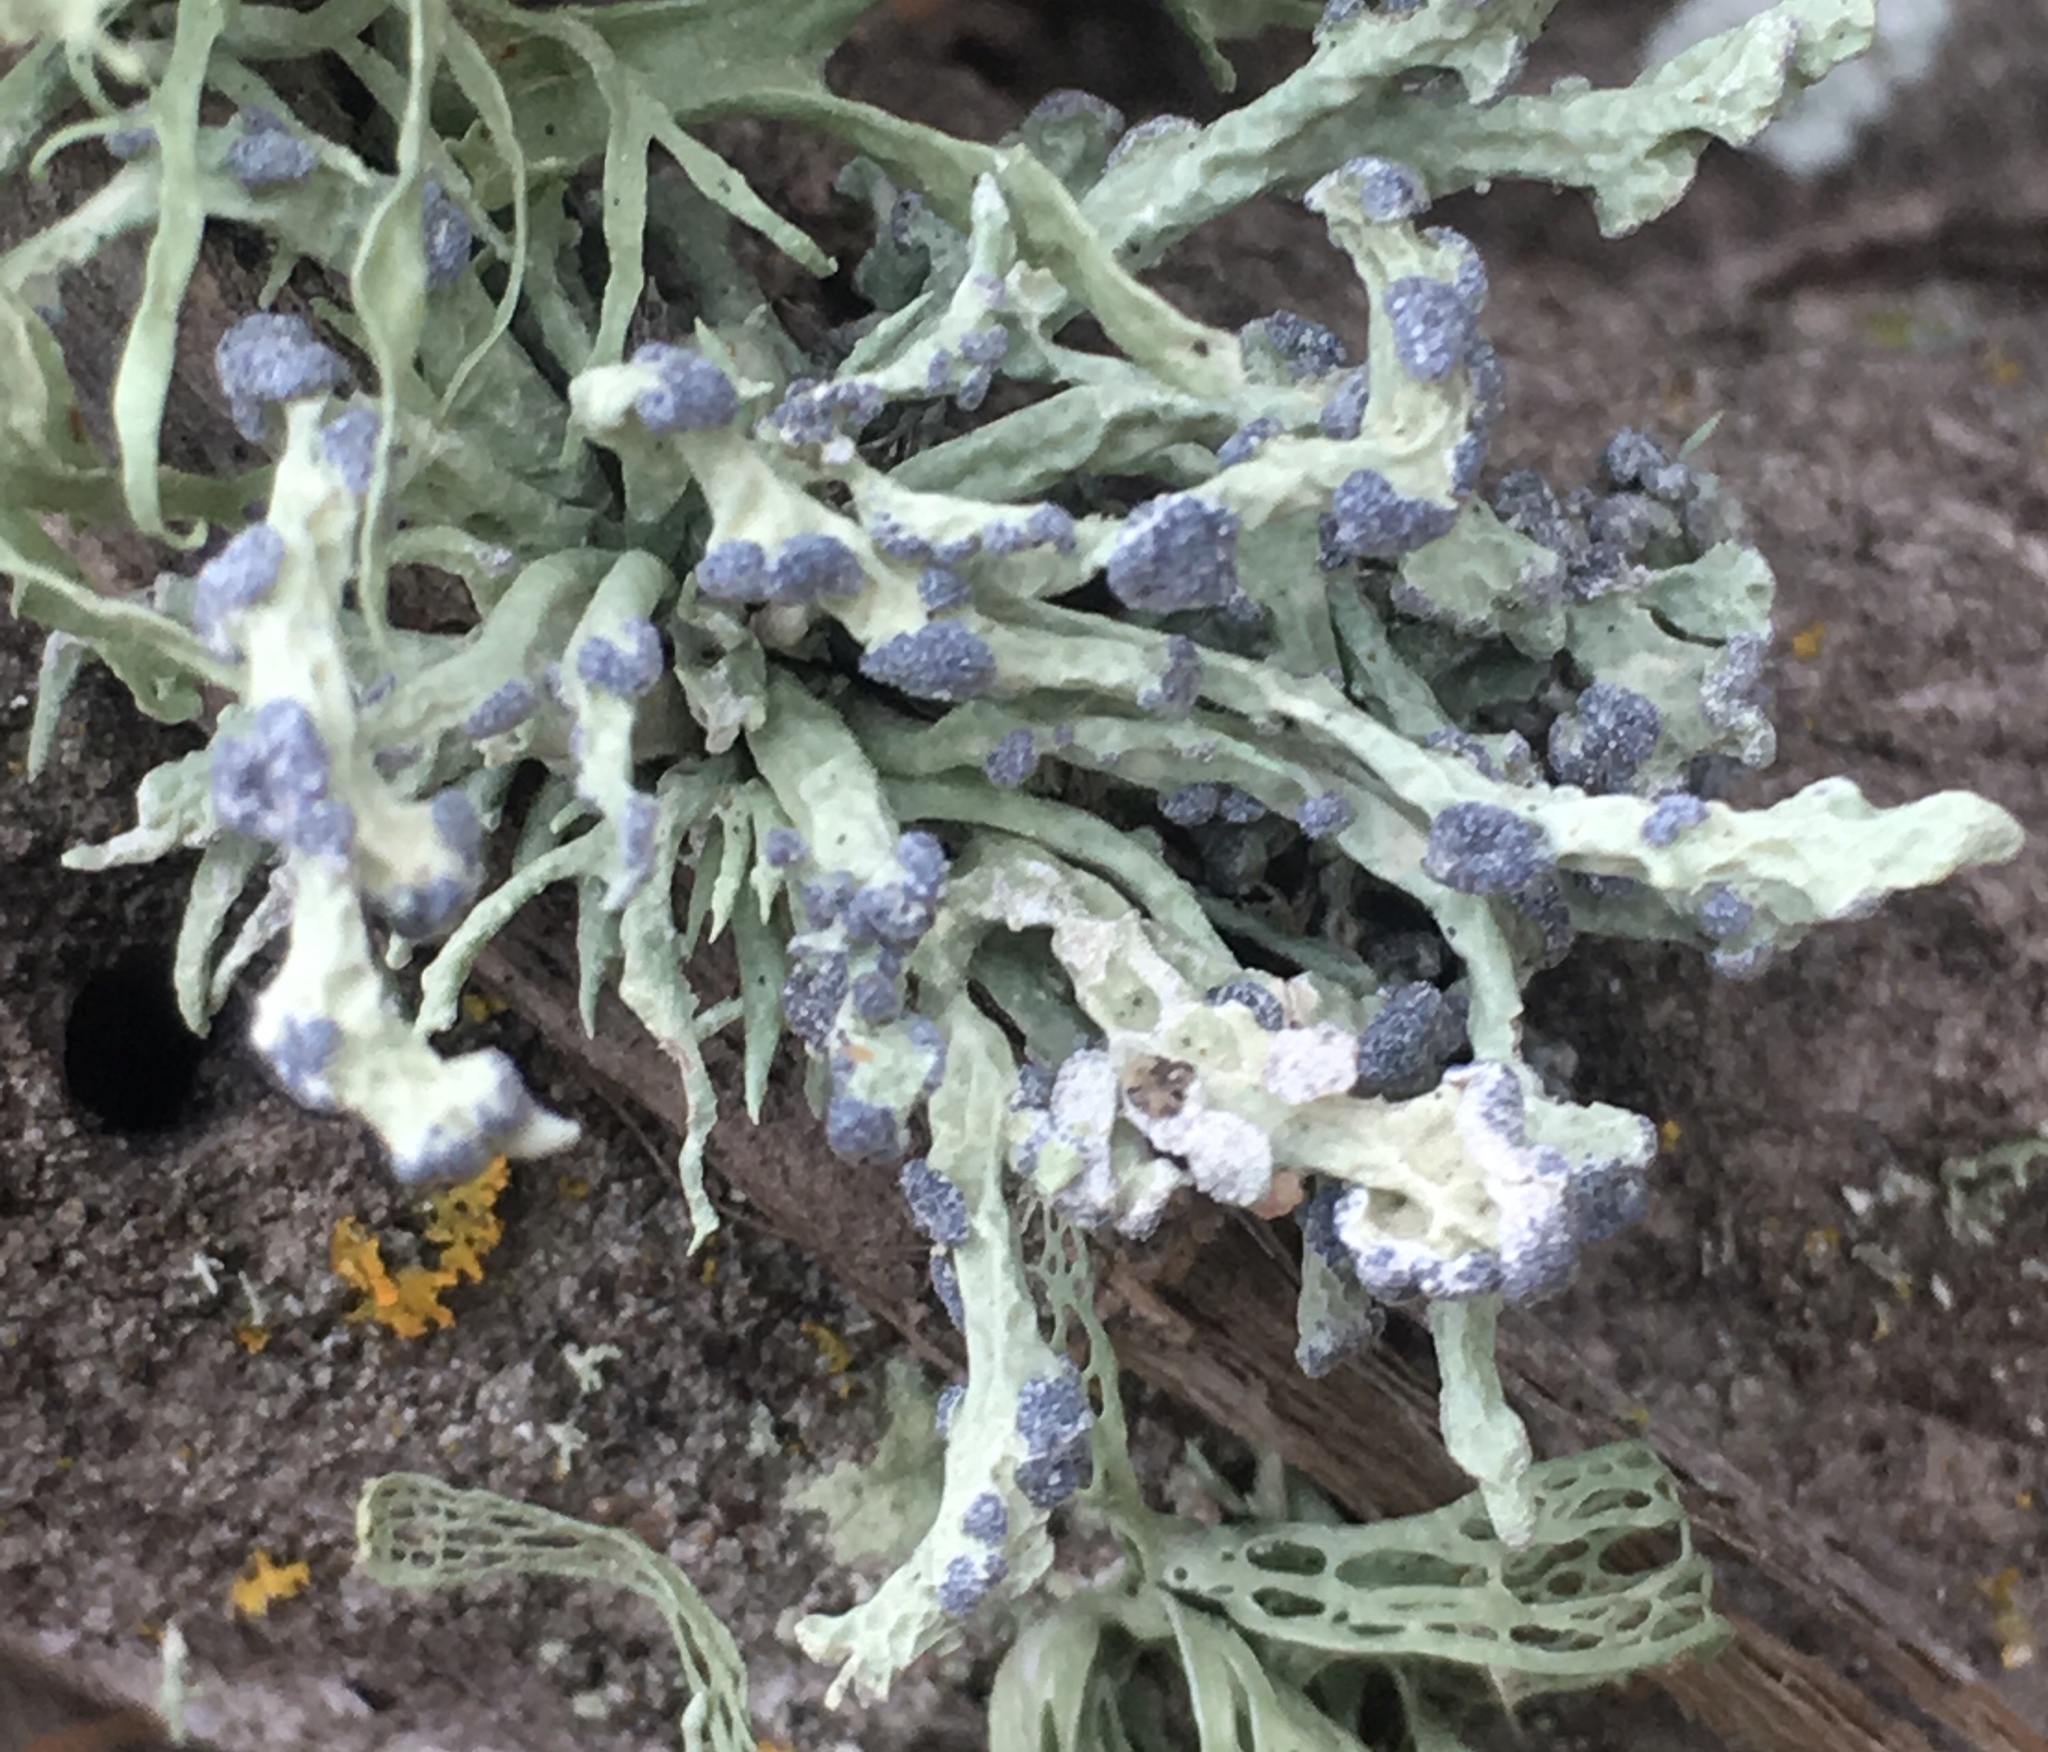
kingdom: Fungi
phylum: Ascomycota
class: Lecanoromycetes
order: Lecanorales
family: Ramalinaceae
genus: Niebla
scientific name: Niebla cephalota
